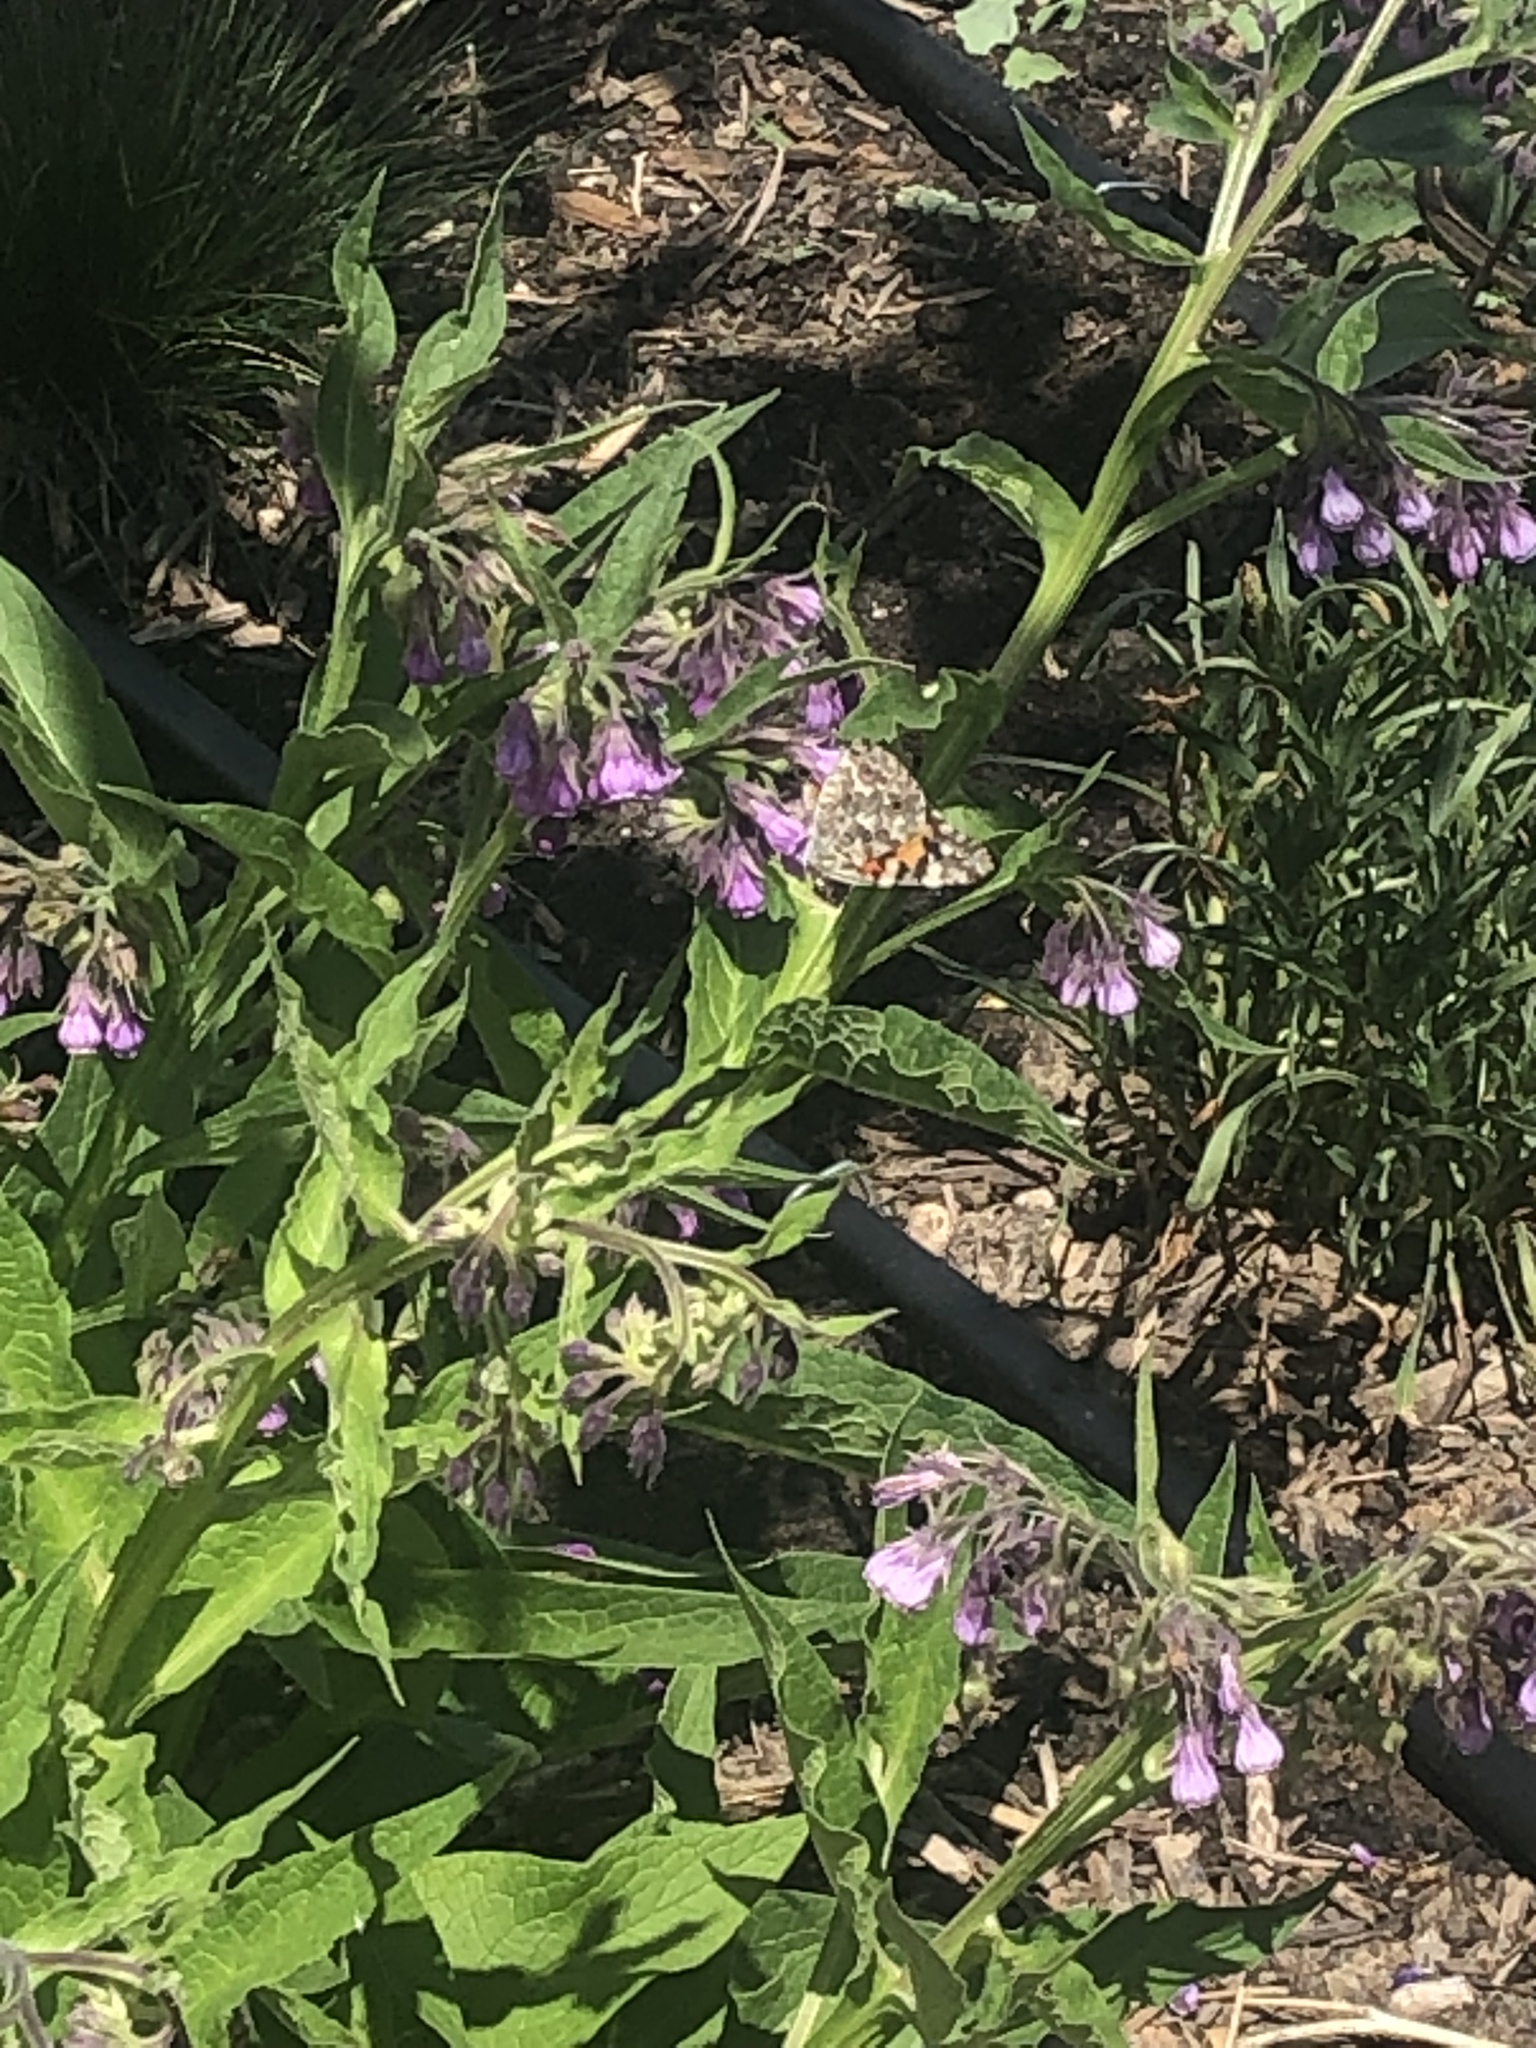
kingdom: Animalia
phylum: Arthropoda
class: Insecta
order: Lepidoptera
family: Nymphalidae
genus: Vanessa
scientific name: Vanessa cardui
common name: Painted lady
